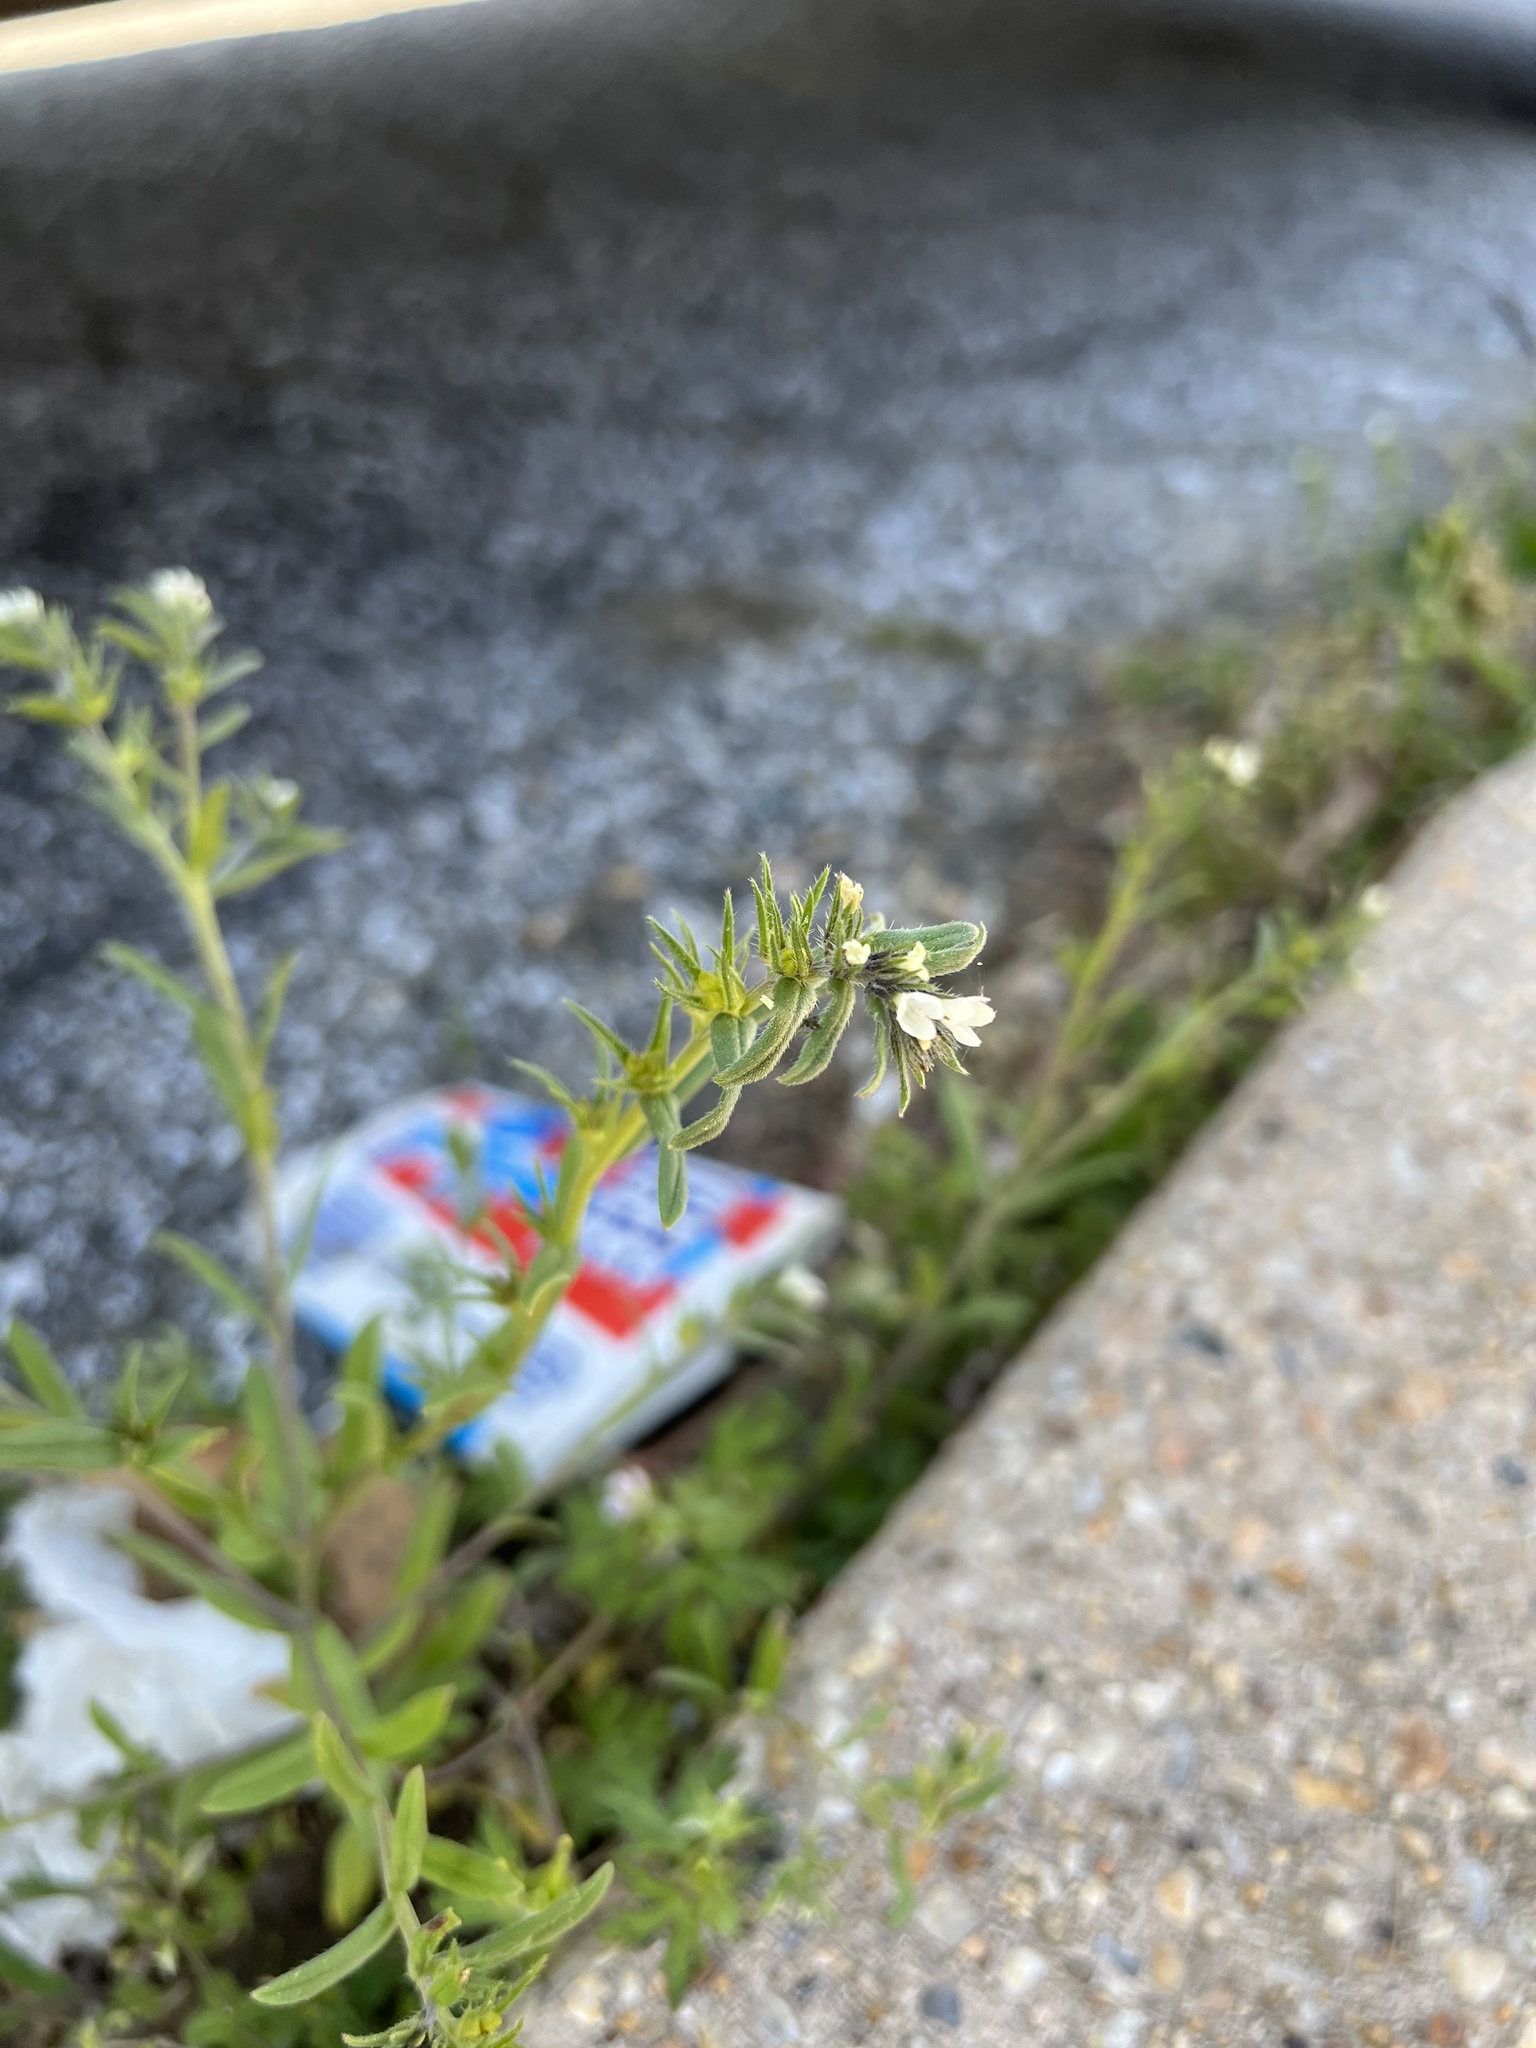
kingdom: Plantae
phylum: Tracheophyta
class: Magnoliopsida
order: Boraginales
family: Boraginaceae
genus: Buglossoides
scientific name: Buglossoides arvensis
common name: Corn gromwell
